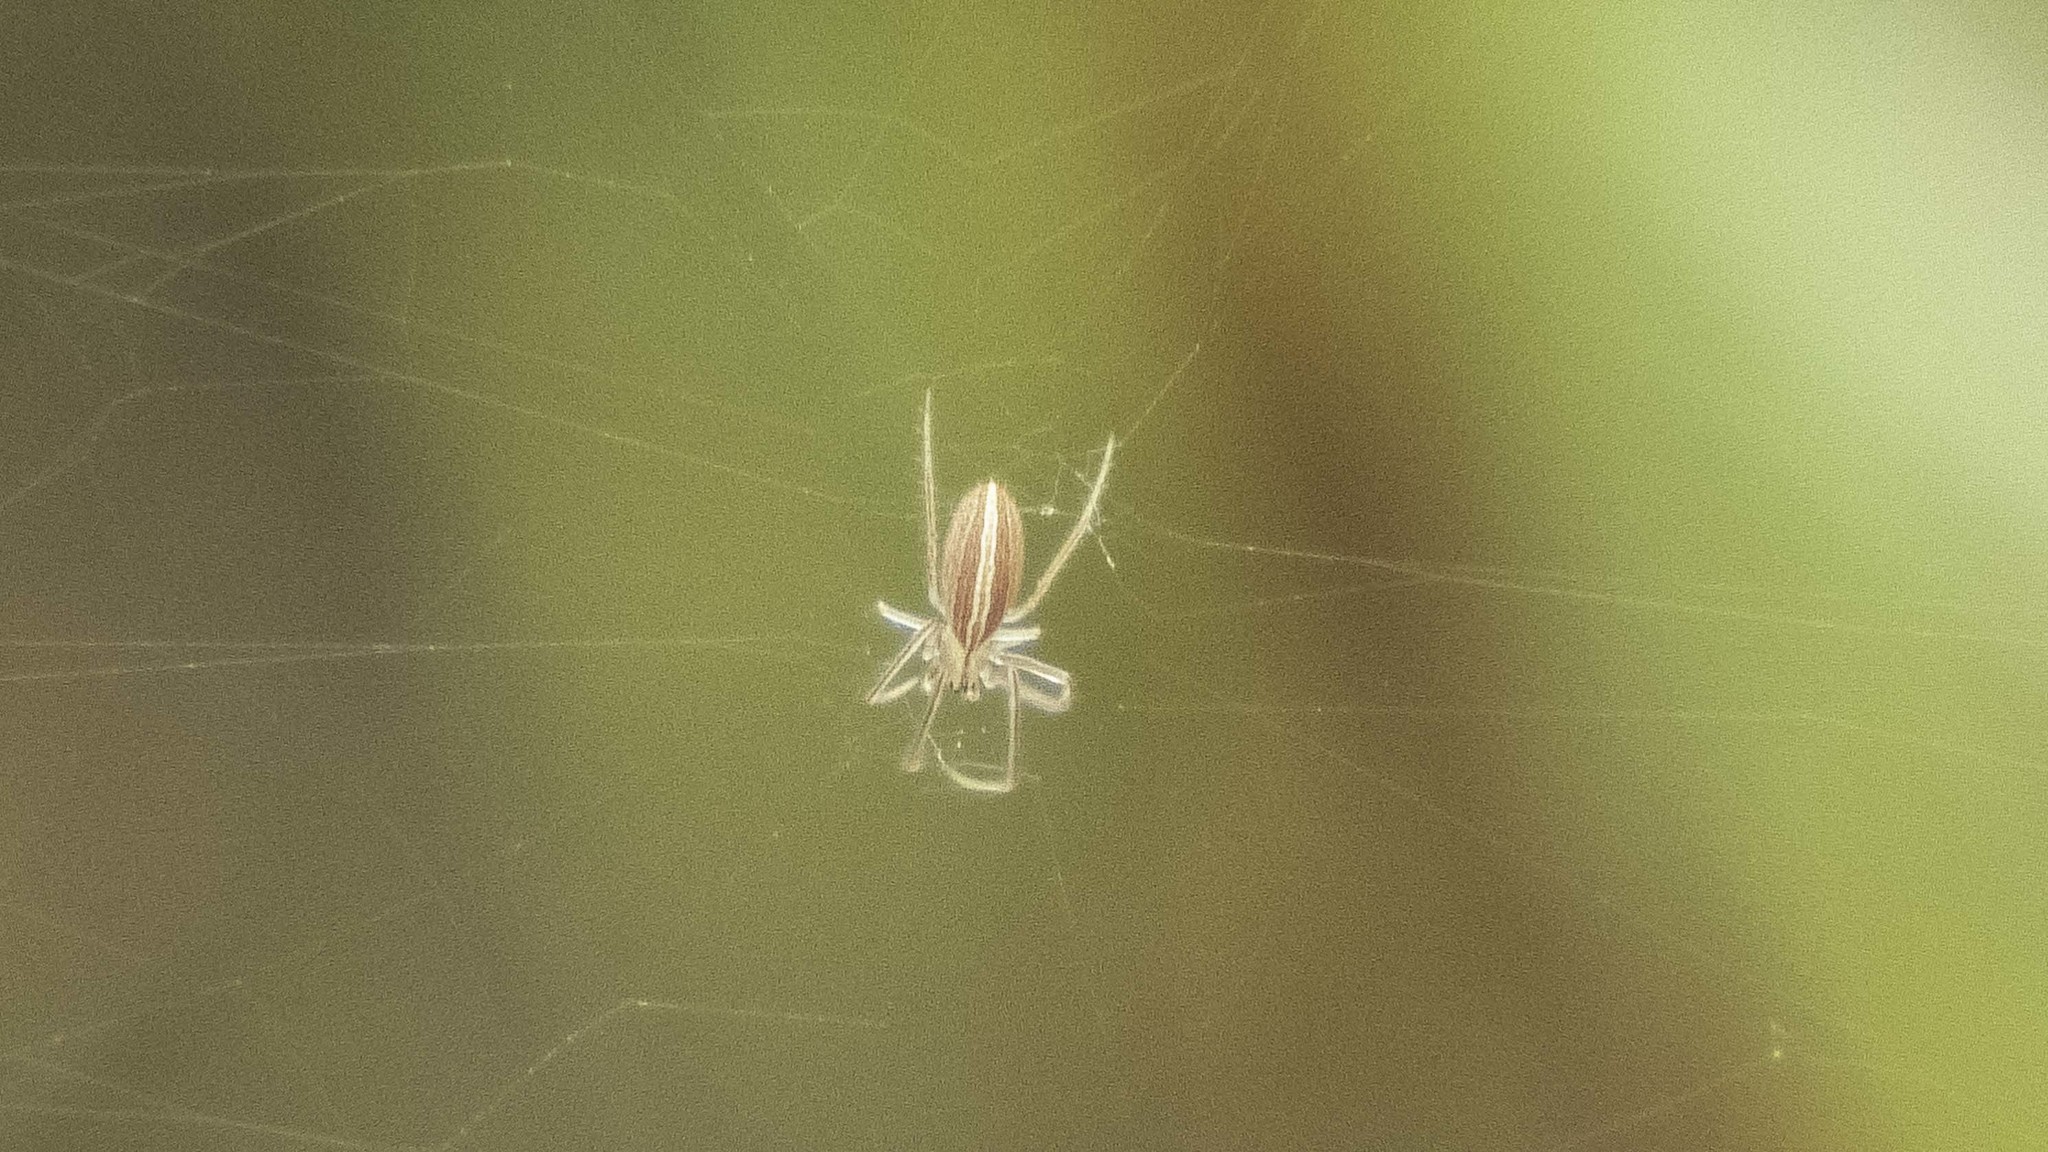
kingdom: Animalia
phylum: Arthropoda
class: Arachnida
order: Araneae
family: Araneidae
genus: Larinia
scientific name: Larinia directa
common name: Orb weavers
